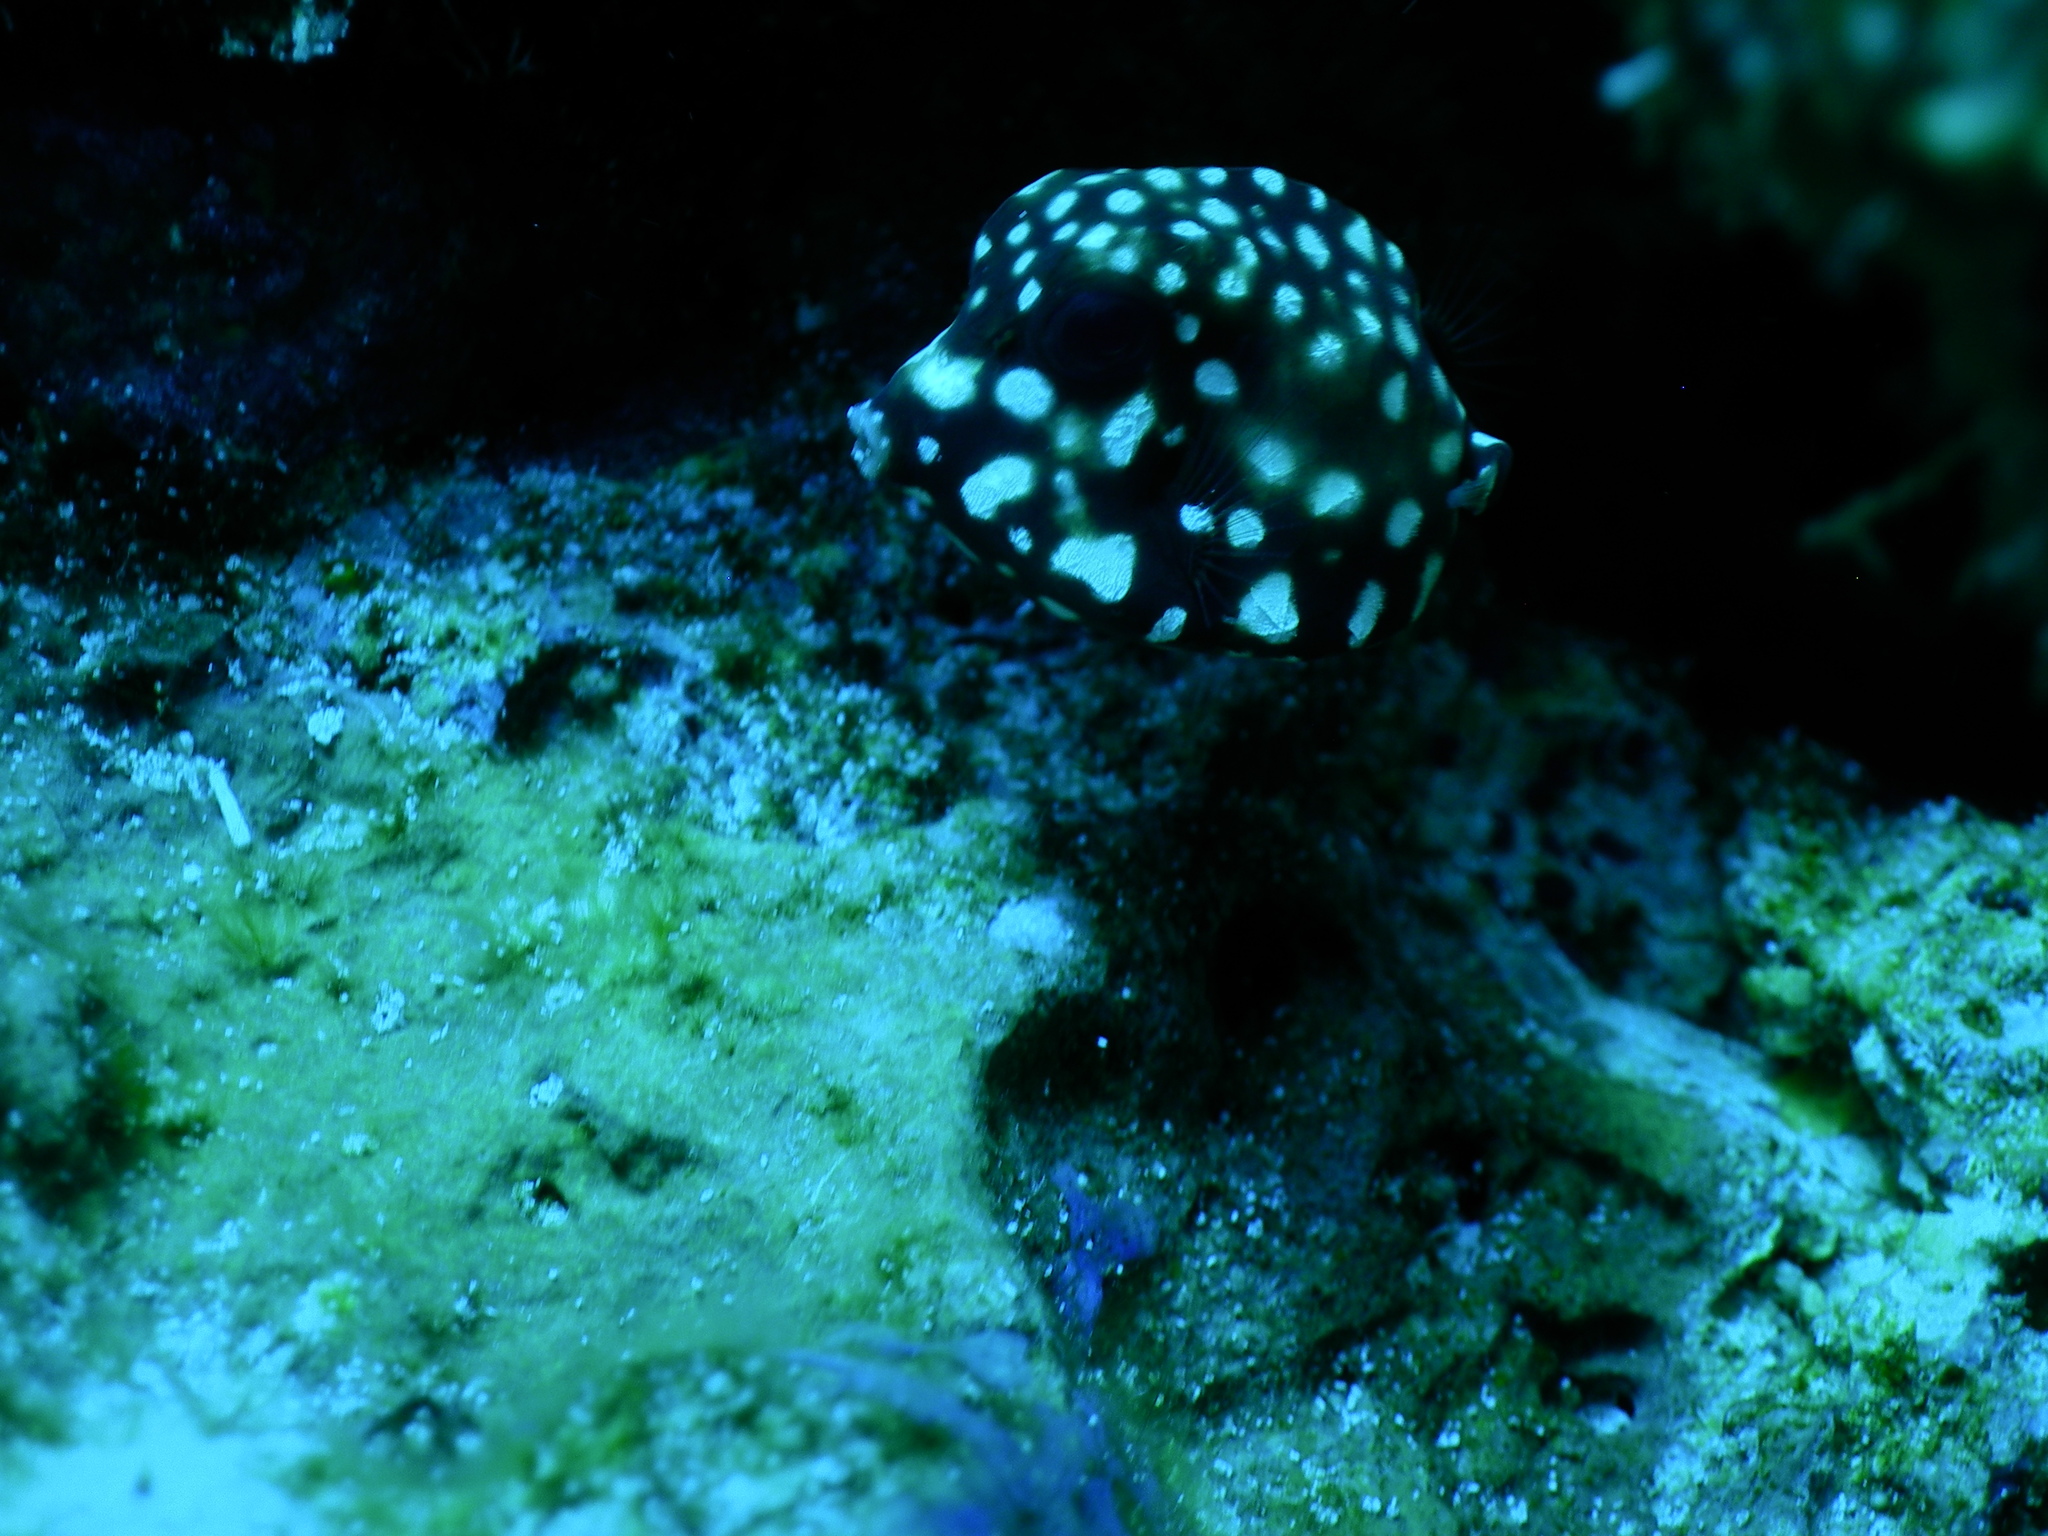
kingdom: Animalia
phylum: Chordata
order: Tetraodontiformes
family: Ostraciidae
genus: Lactophrys
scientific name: Lactophrys triqueter
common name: Smooth trunkfish
